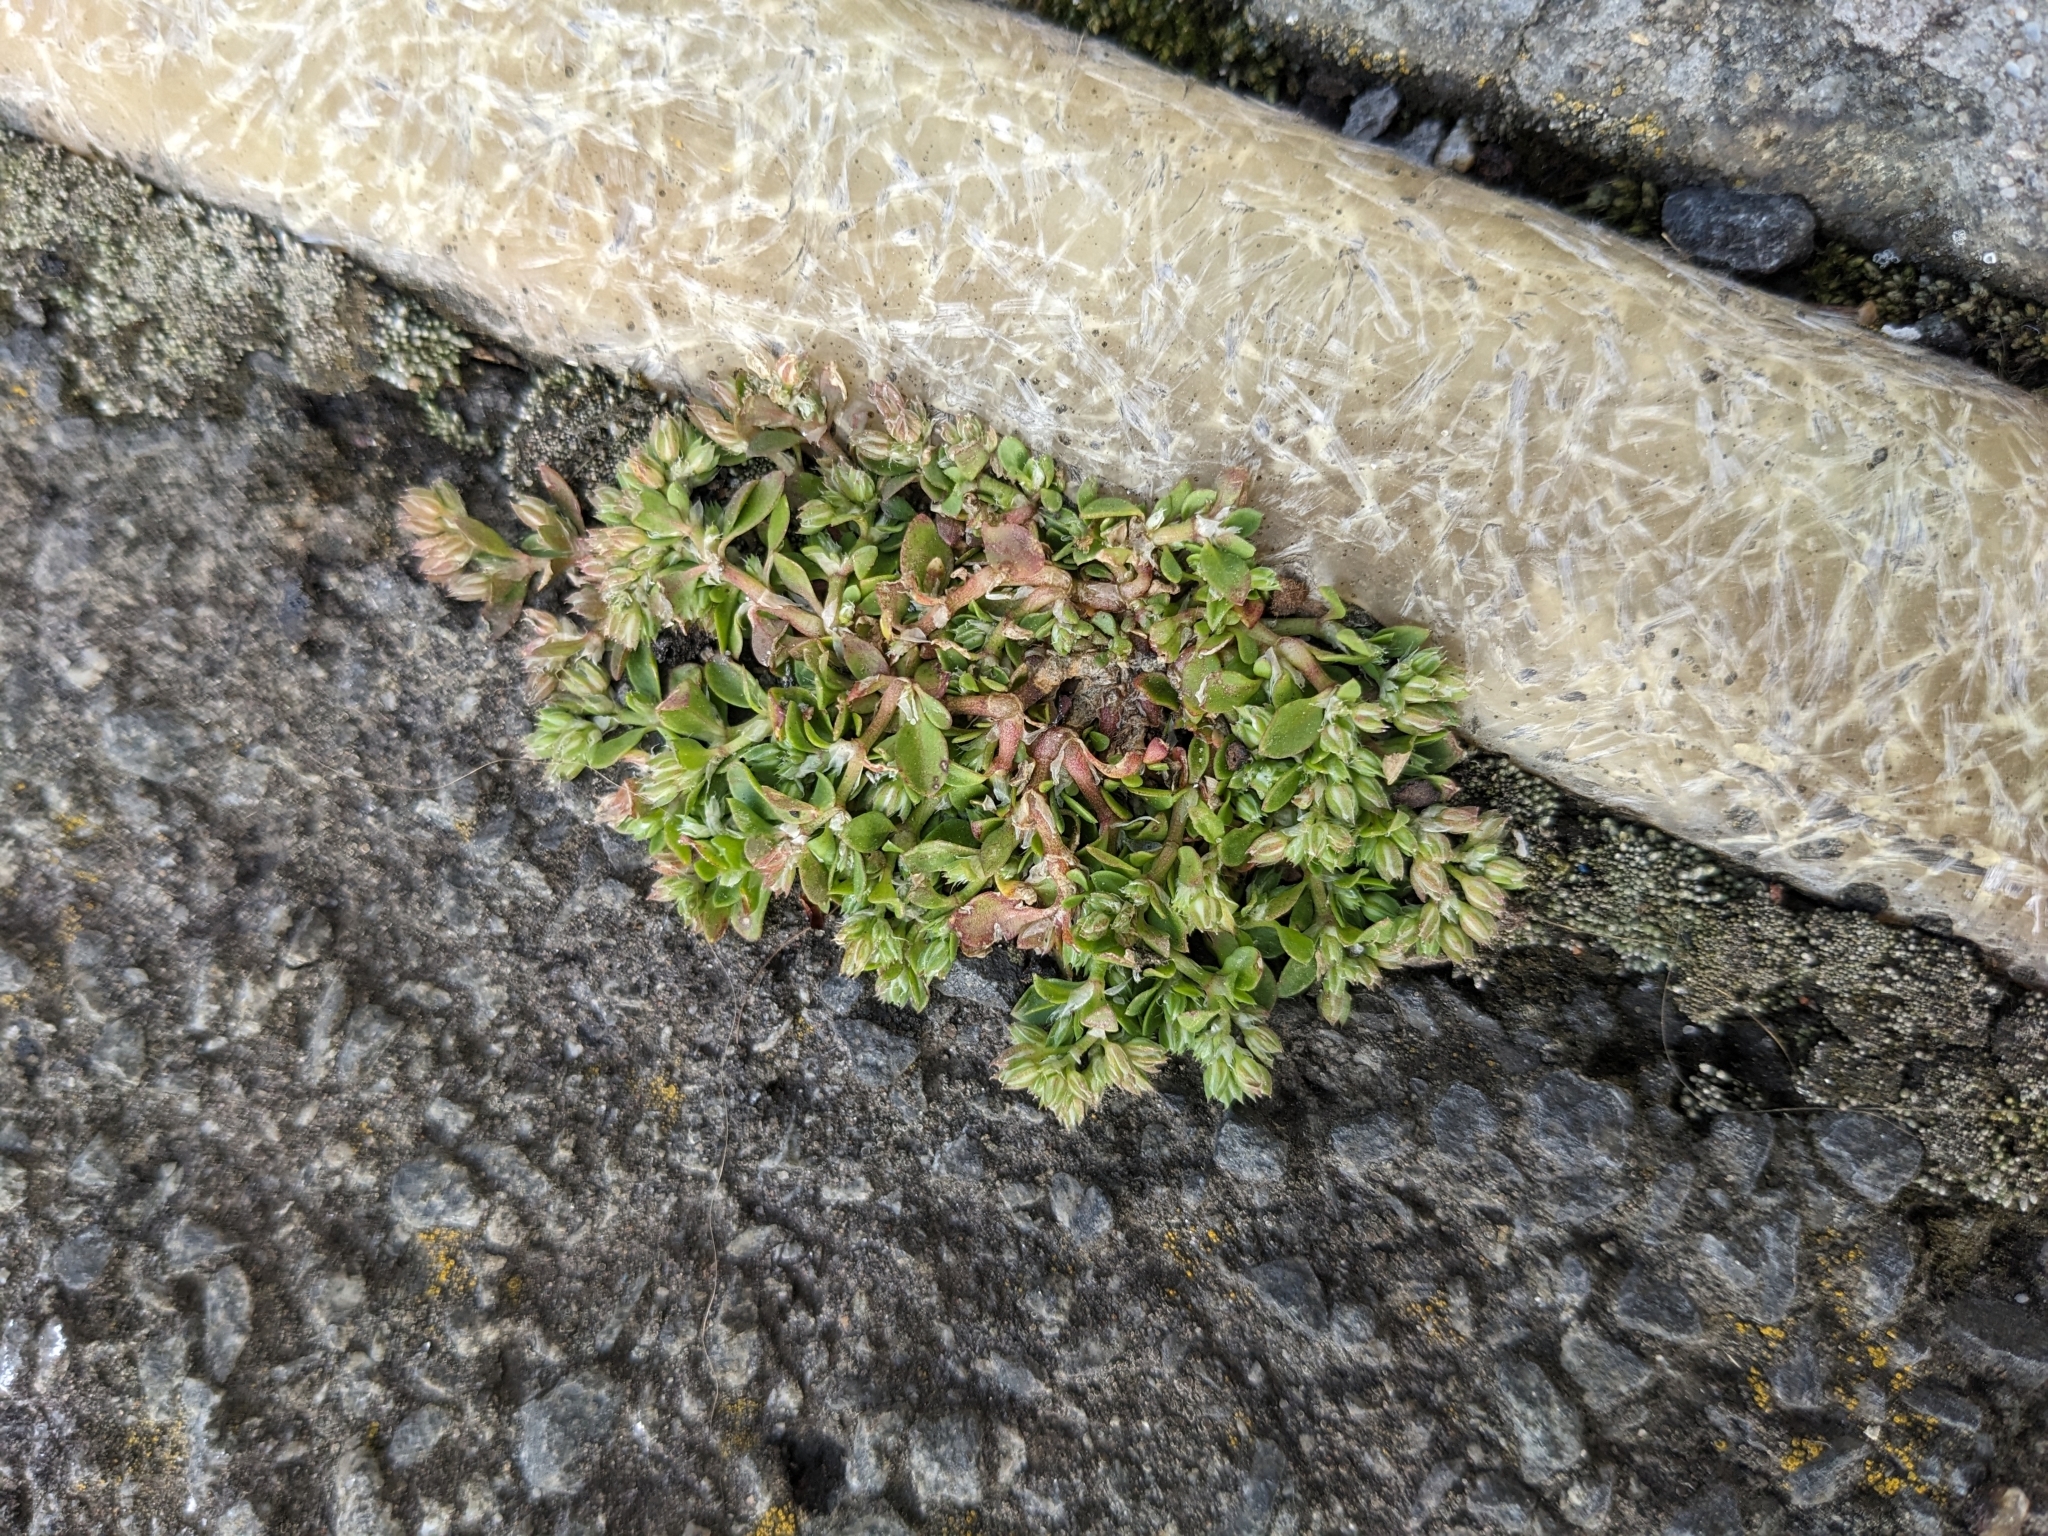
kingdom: Plantae
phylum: Tracheophyta
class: Magnoliopsida
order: Caryophyllales
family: Caryophyllaceae
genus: Polycarpon
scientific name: Polycarpon tetraphyllum
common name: Four-leaved all-seed
